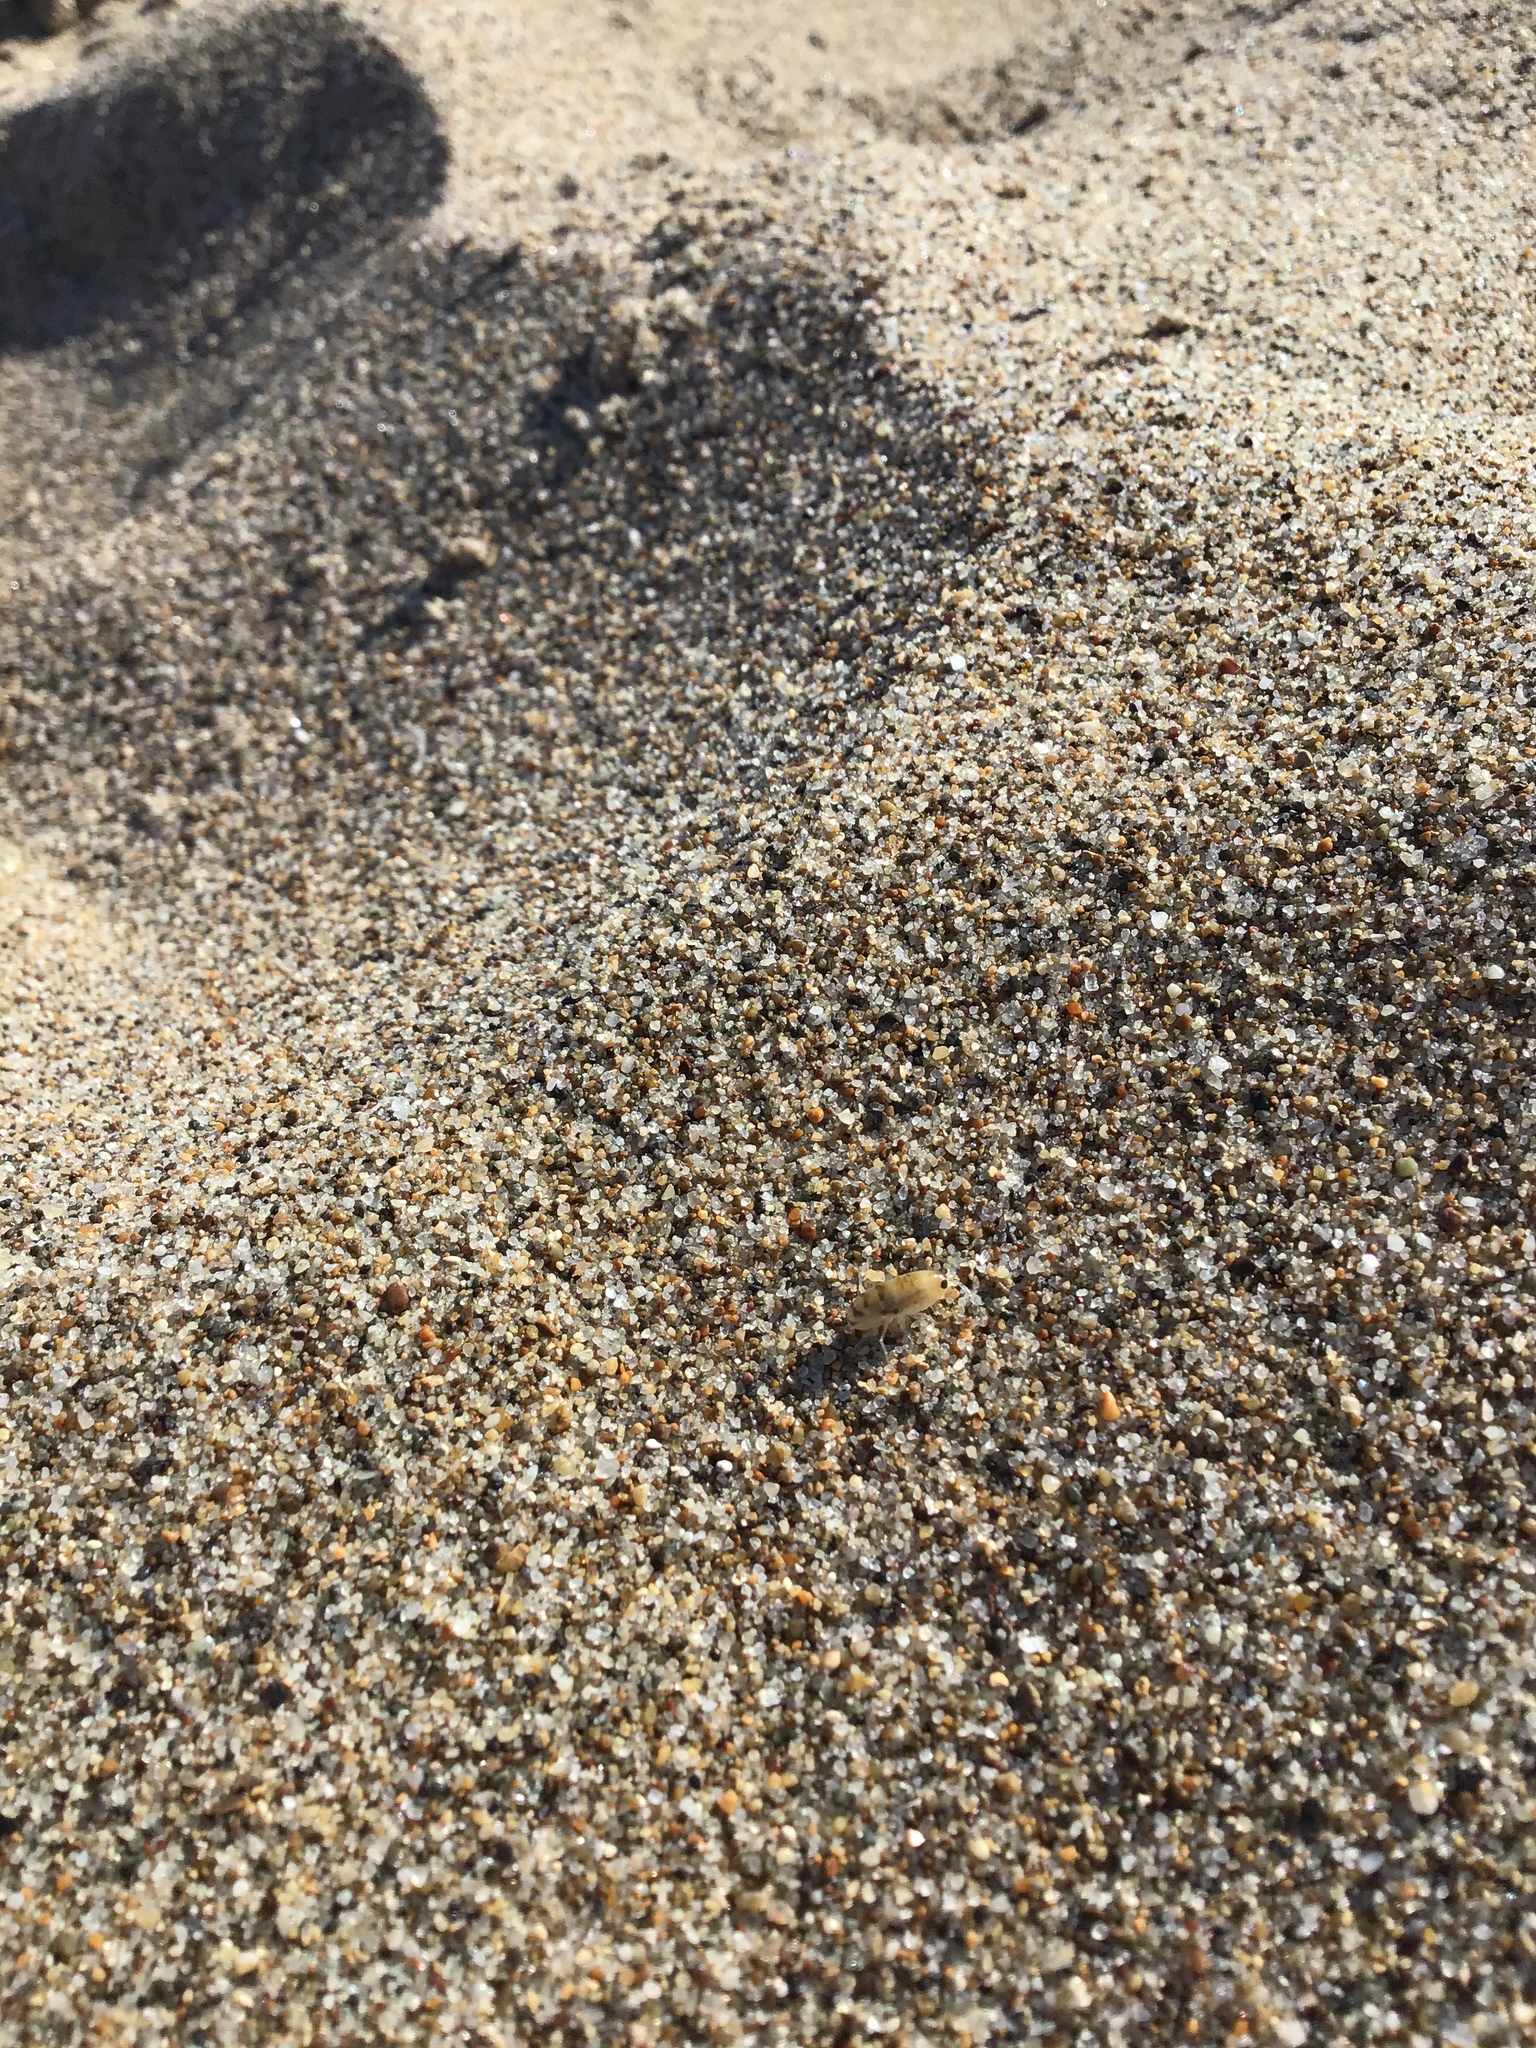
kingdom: Animalia
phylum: Arthropoda
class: Malacostraca
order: Amphipoda
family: Talitridae
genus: Megalorchestia
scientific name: Megalorchestia columbiana
